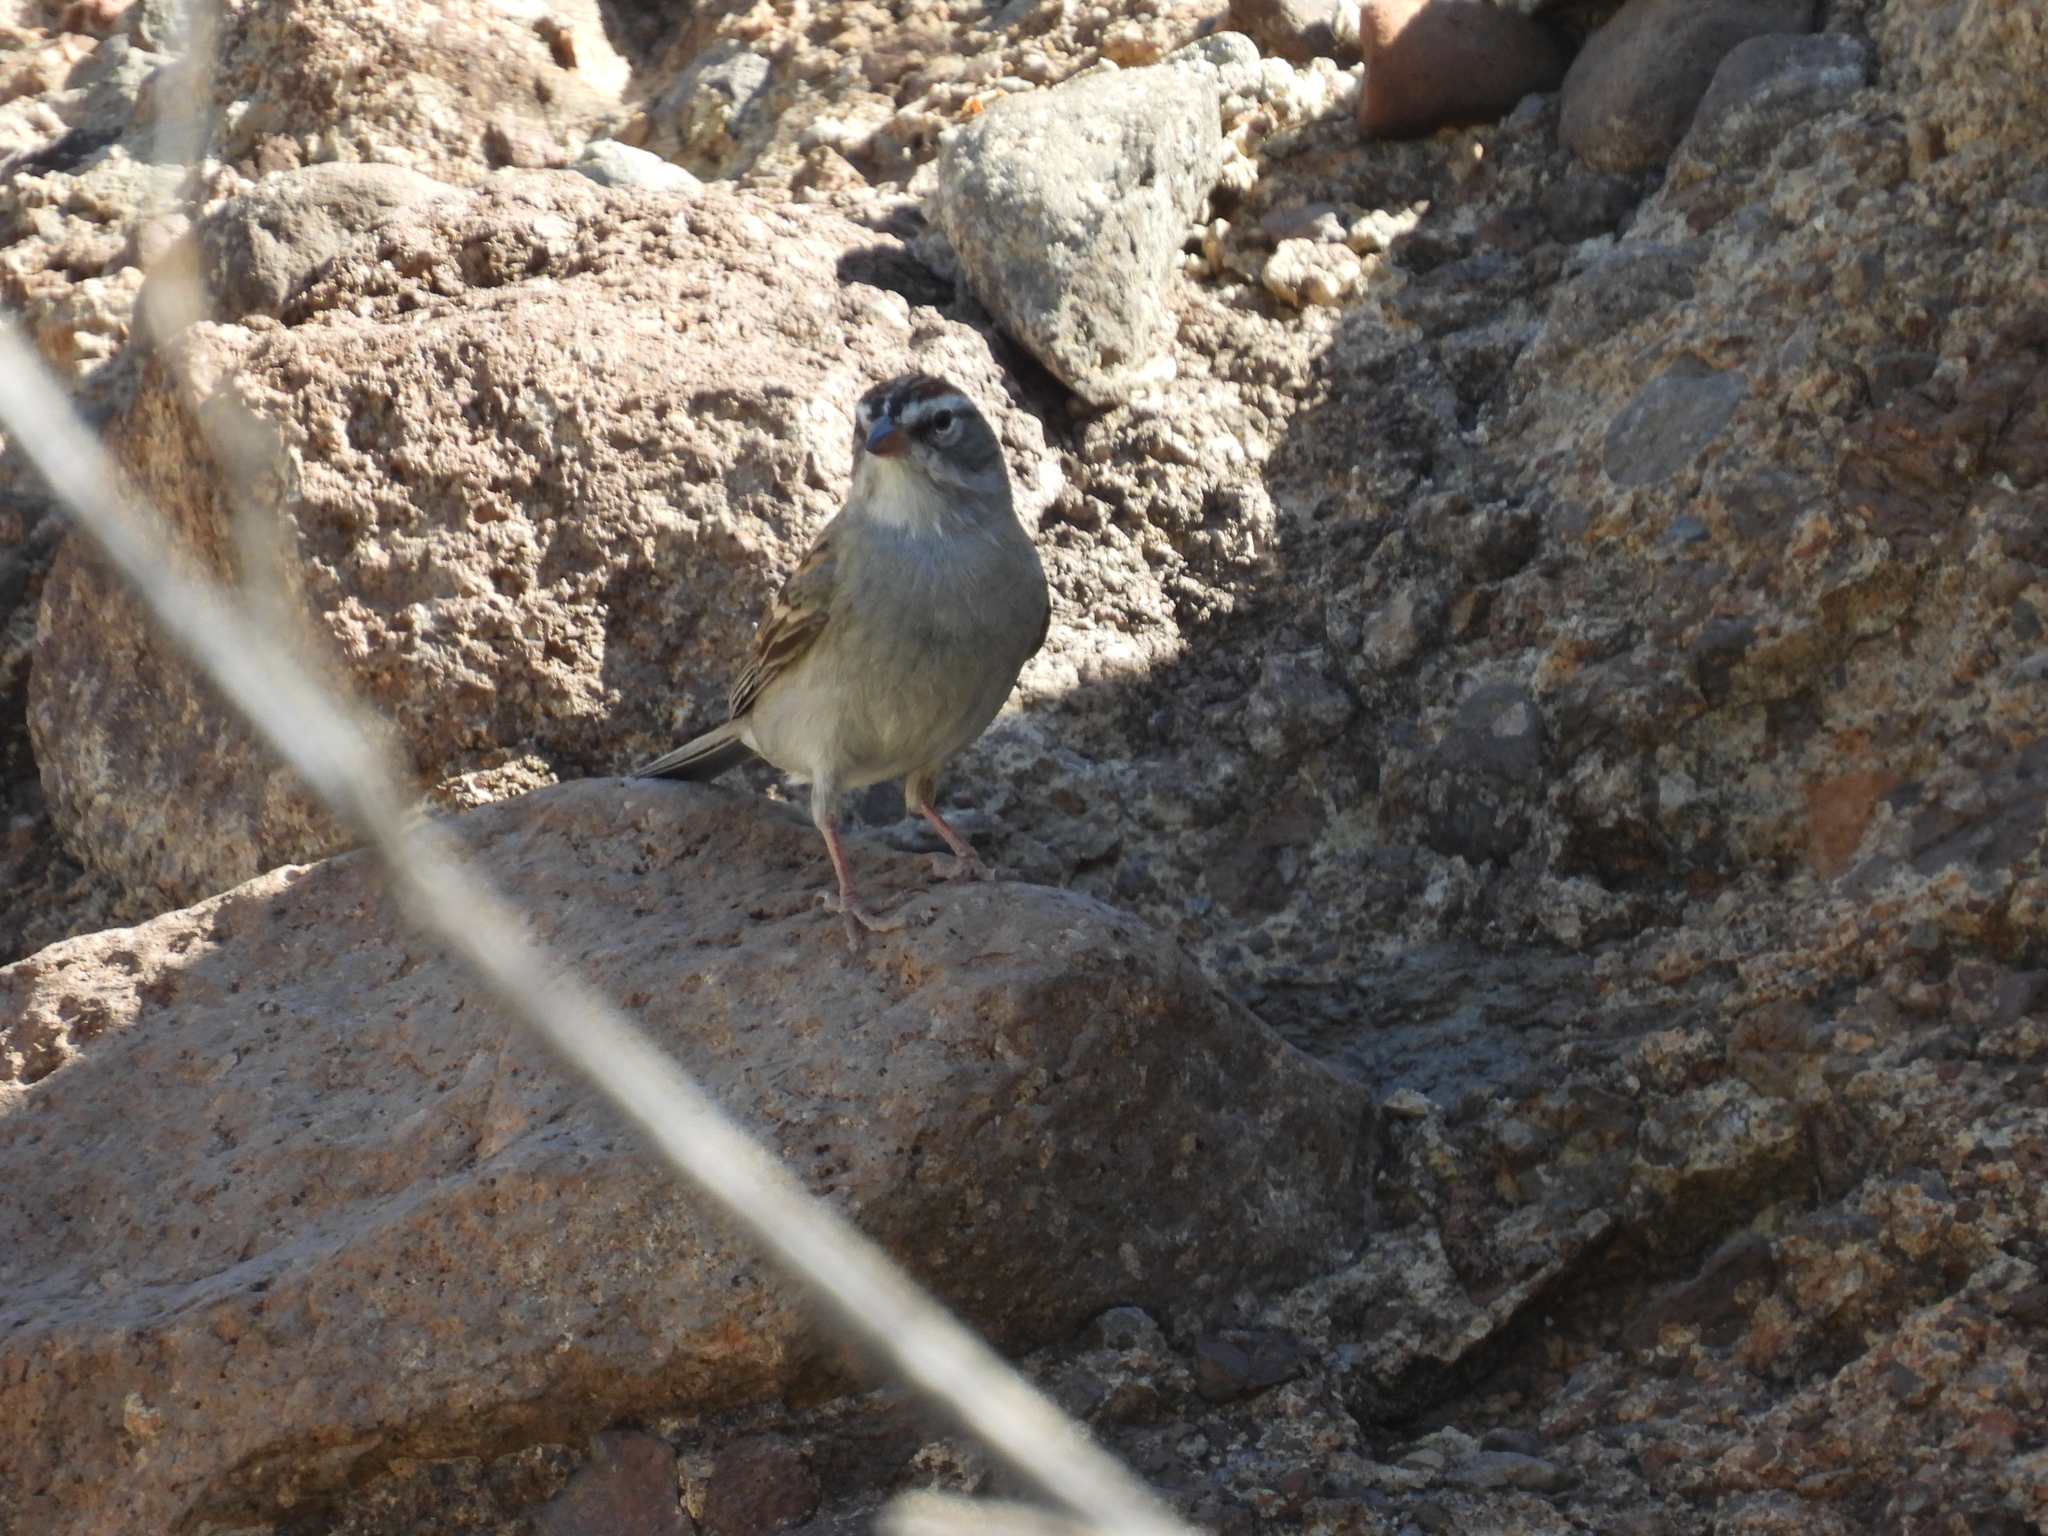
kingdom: Animalia
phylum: Chordata
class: Aves
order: Passeriformes
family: Passerellidae
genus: Spizella
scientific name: Spizella passerina
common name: Chipping sparrow
